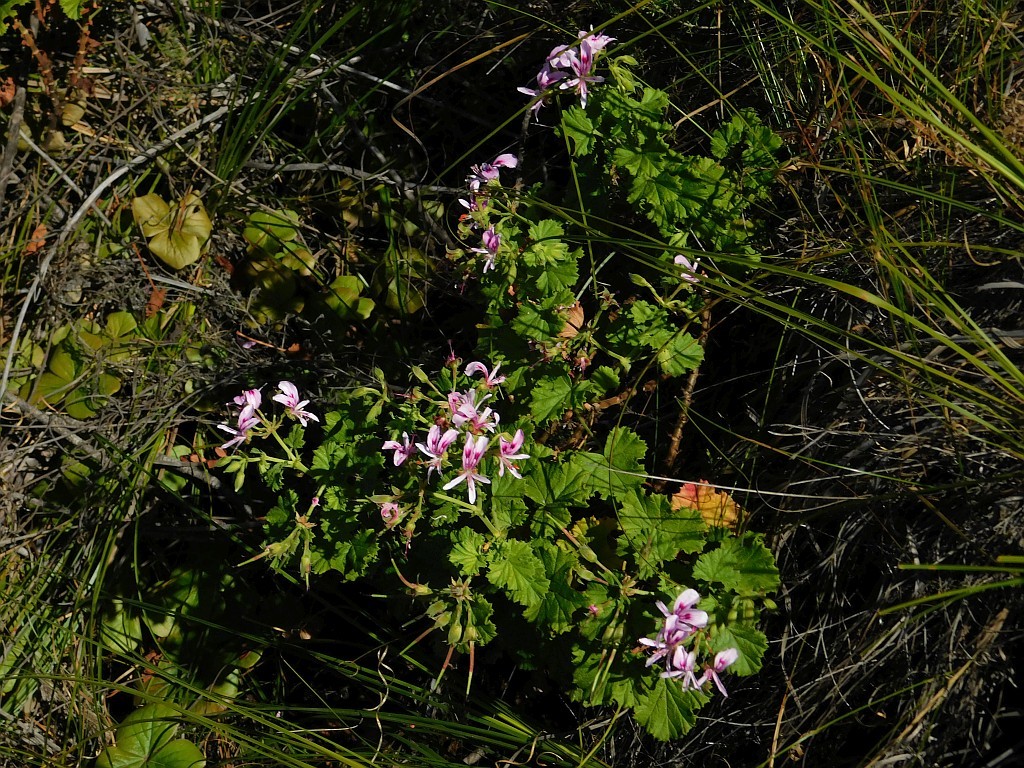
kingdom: Plantae
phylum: Tracheophyta
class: Magnoliopsida
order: Geraniales
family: Geraniaceae
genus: Pelargonium
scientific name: Pelargonium greytonense
